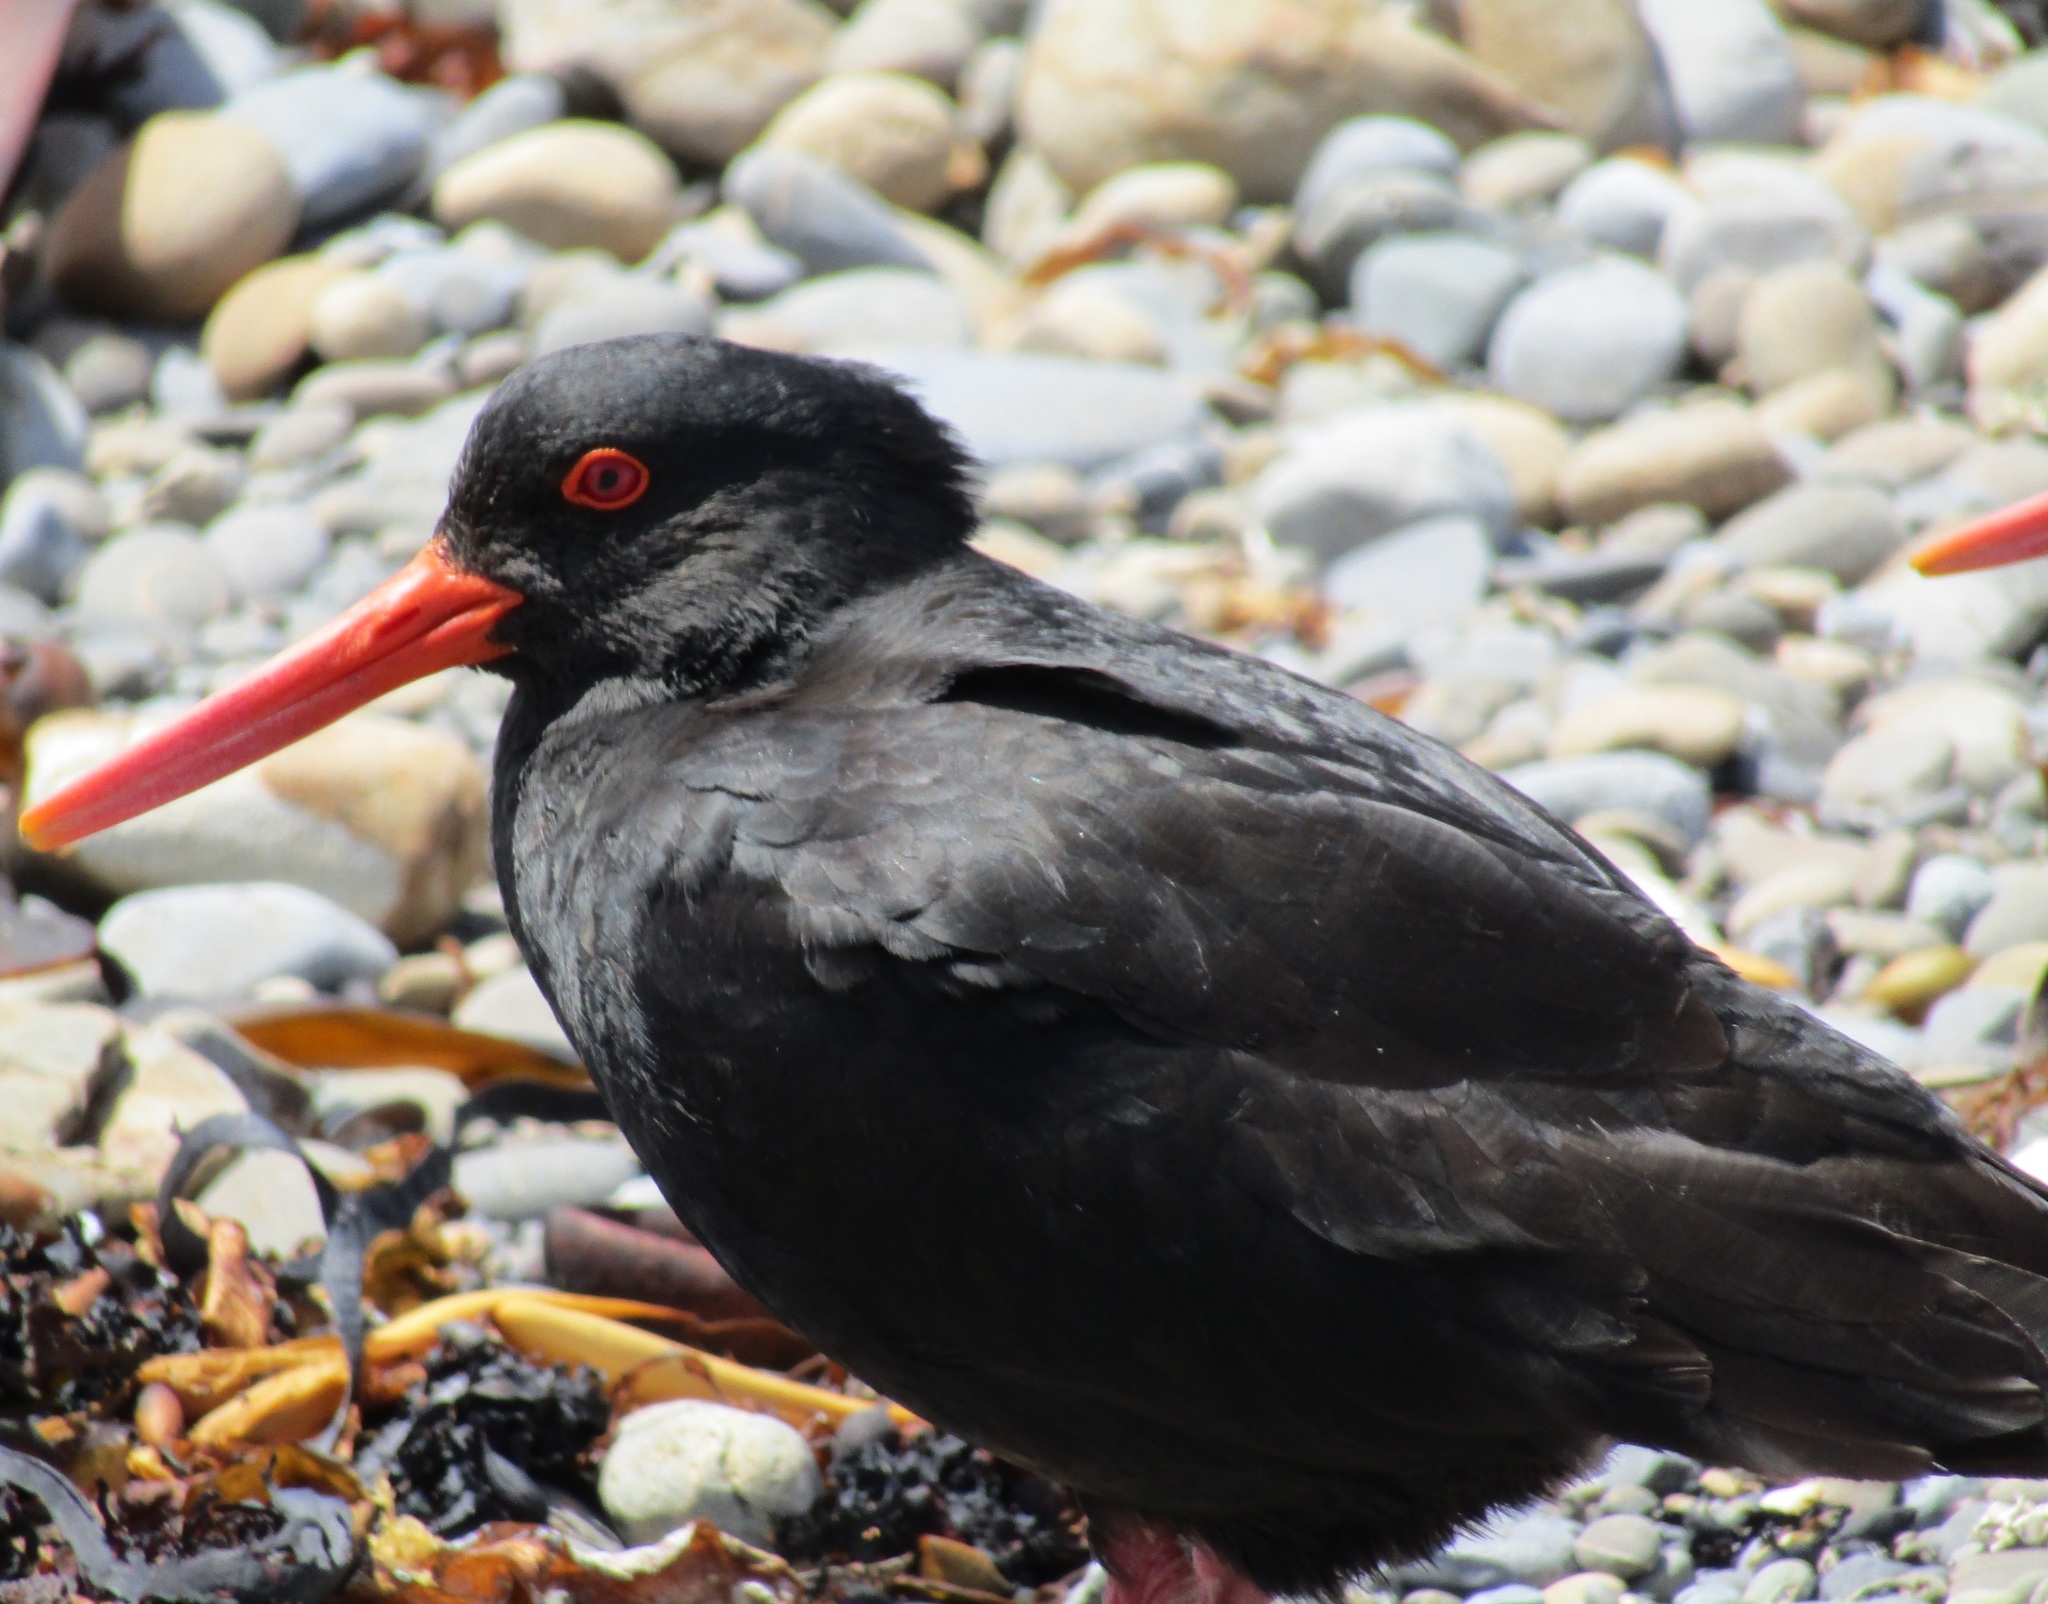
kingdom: Animalia
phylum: Chordata
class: Aves
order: Charadriiformes
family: Haematopodidae
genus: Haematopus
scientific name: Haematopus unicolor
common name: Variable oystercatcher
